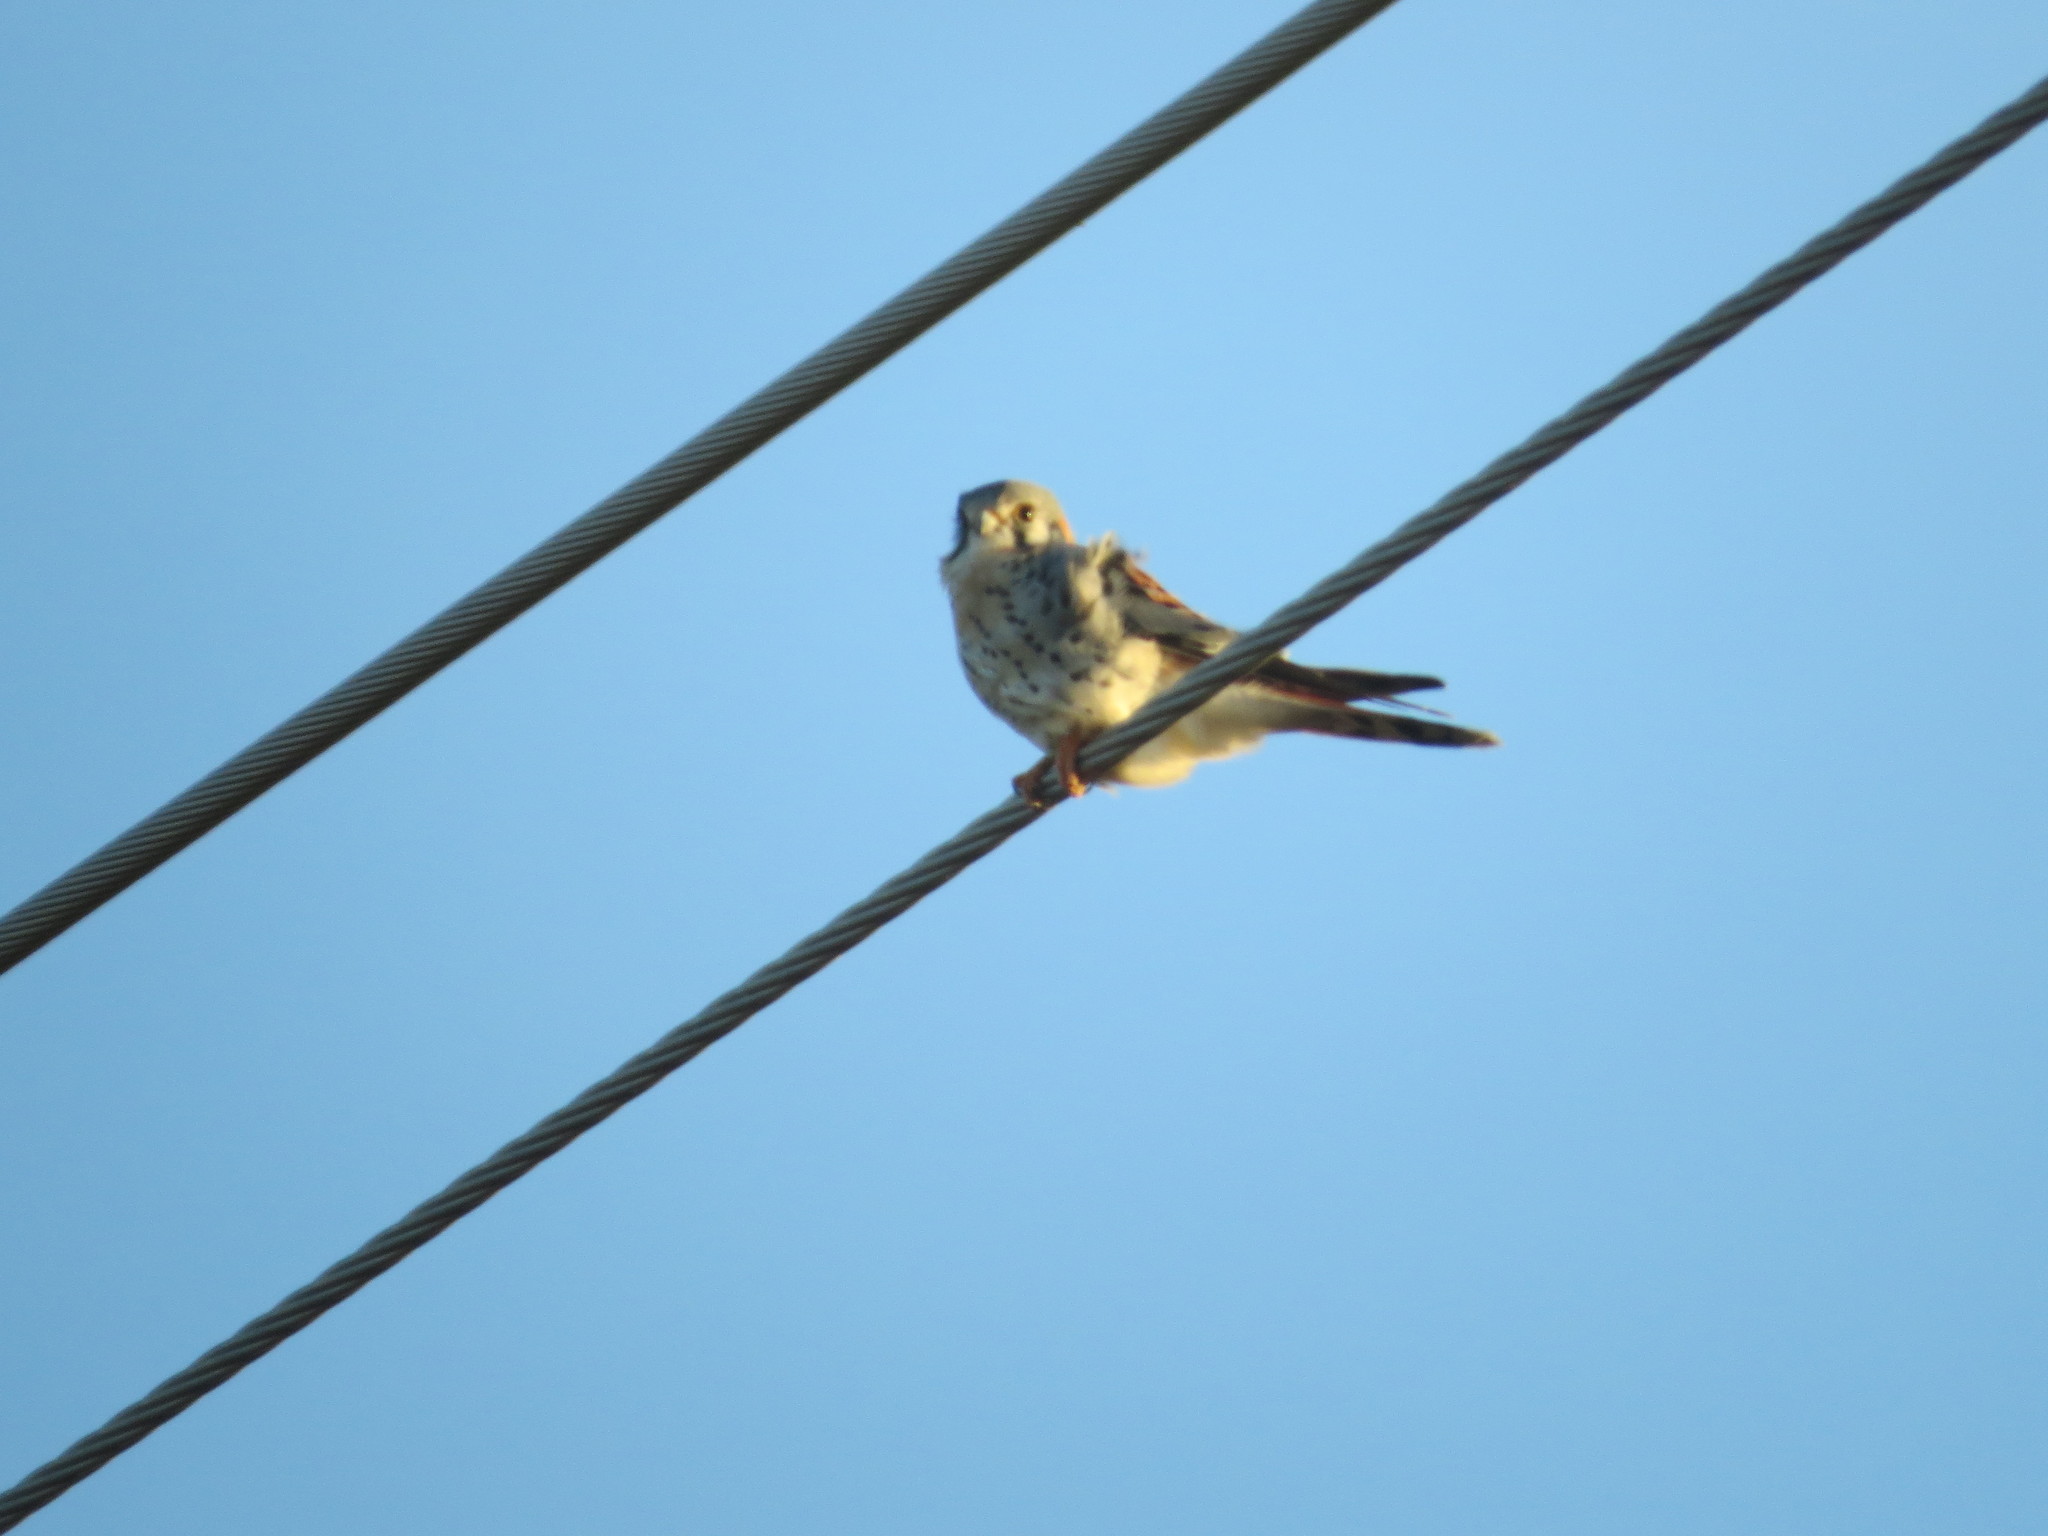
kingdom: Animalia
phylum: Chordata
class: Aves
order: Falconiformes
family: Falconidae
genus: Falco
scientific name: Falco sparverius
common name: American kestrel
